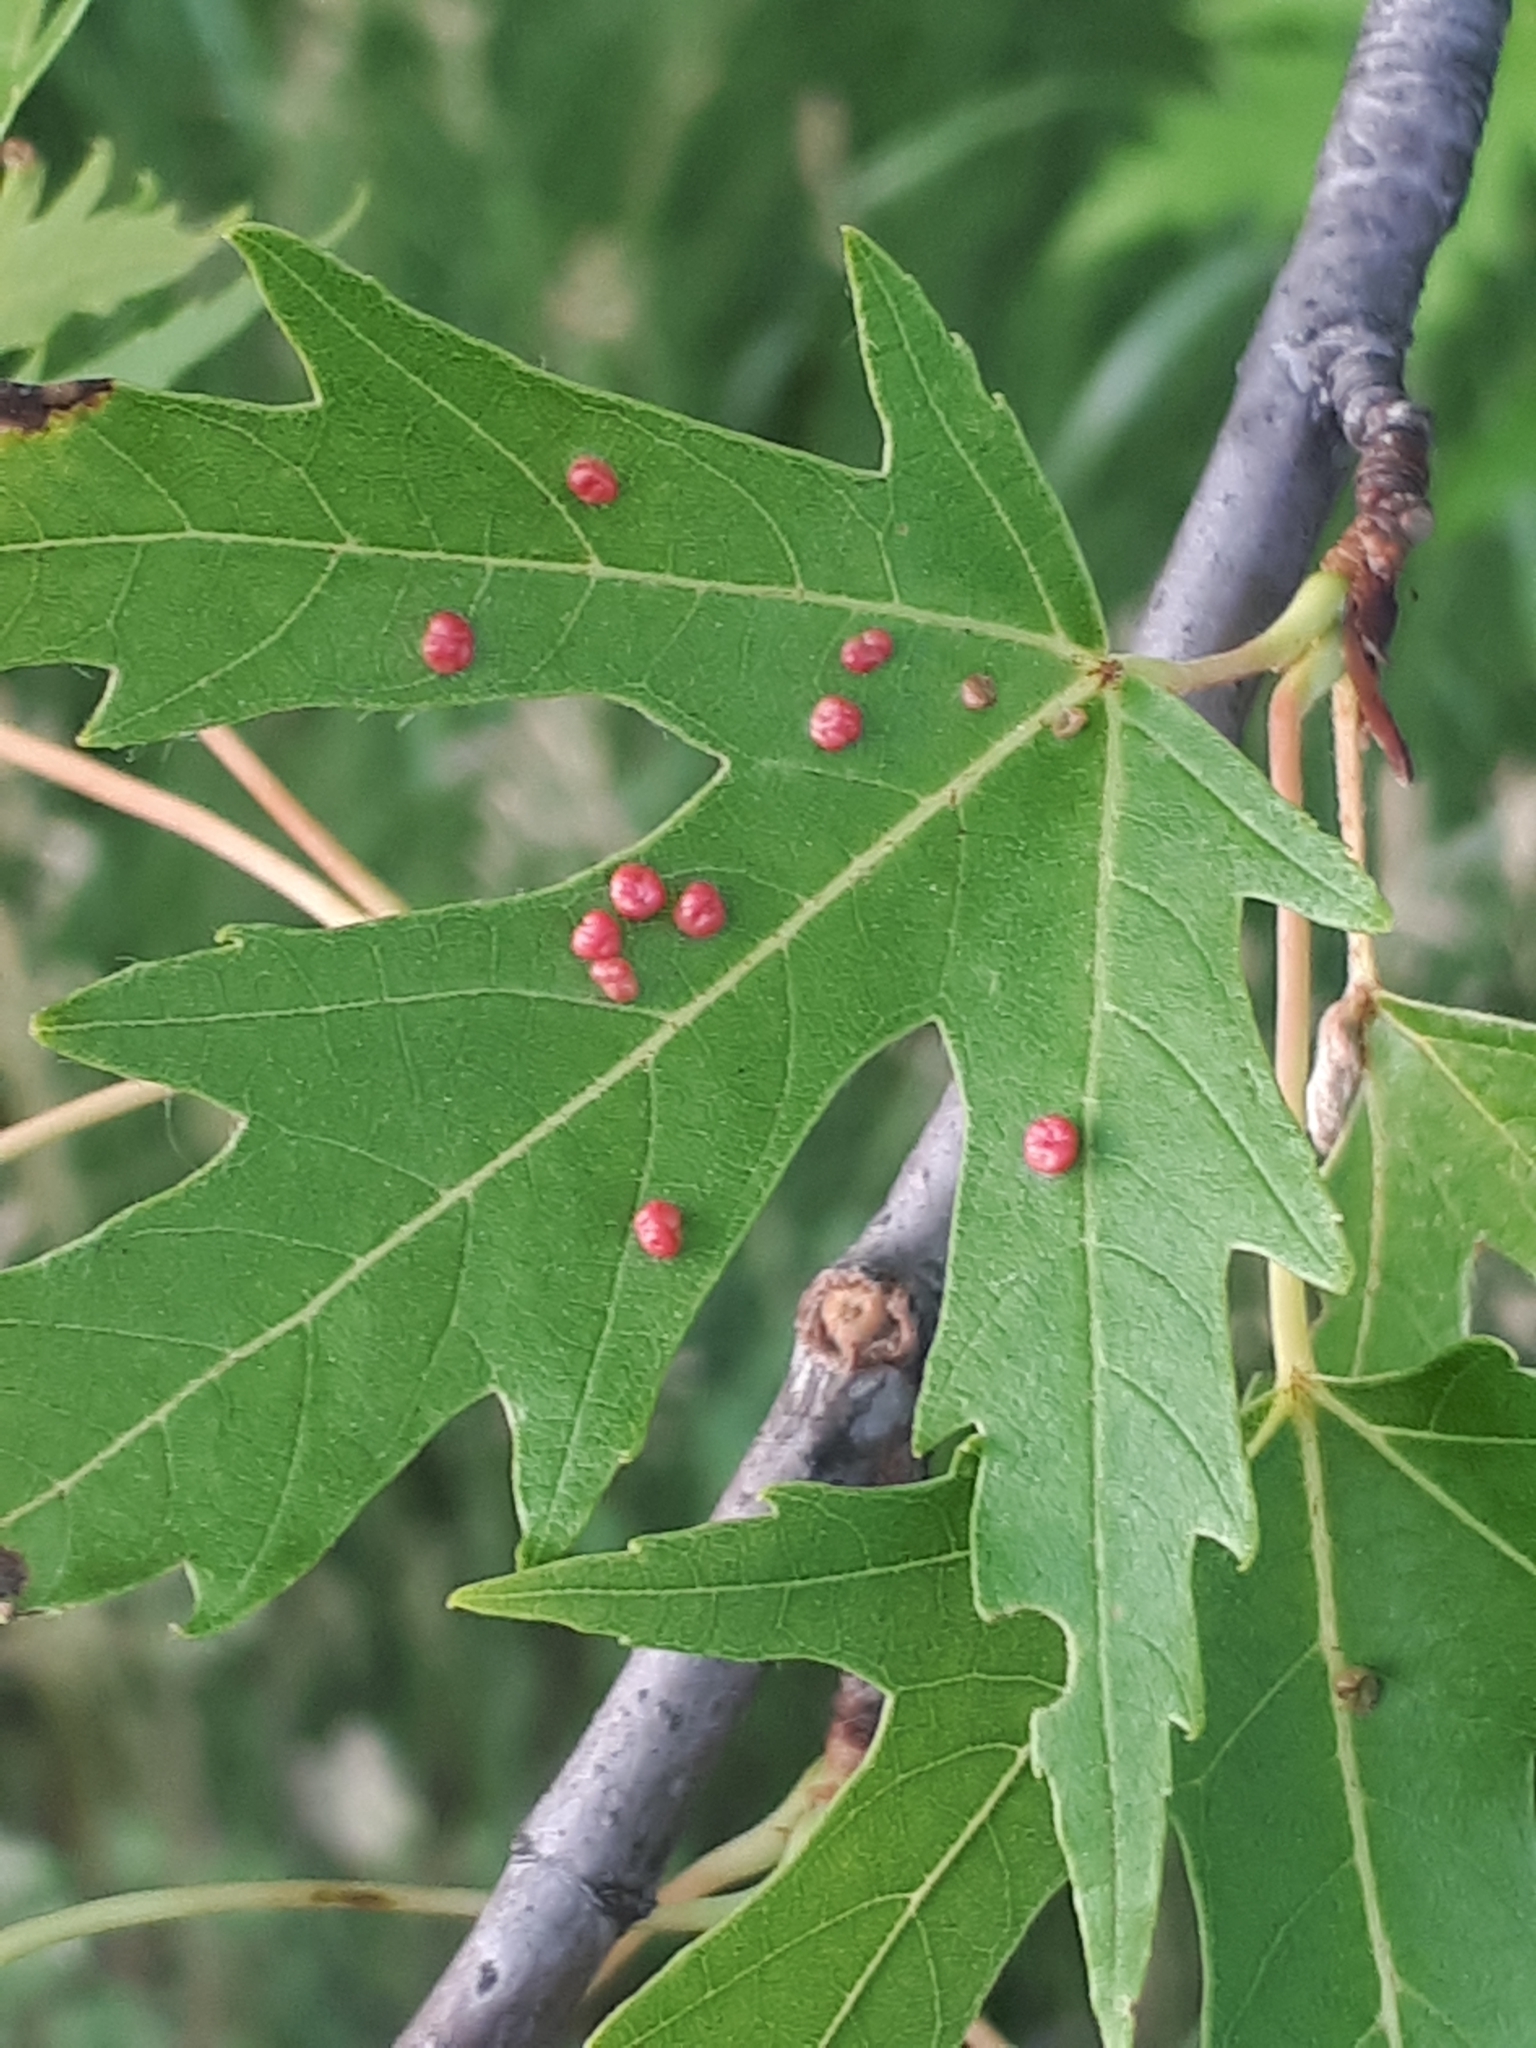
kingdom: Animalia
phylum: Arthropoda
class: Arachnida
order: Trombidiformes
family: Eriophyidae
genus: Vasates
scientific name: Vasates quadripedes
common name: Maple bladder gall mite
